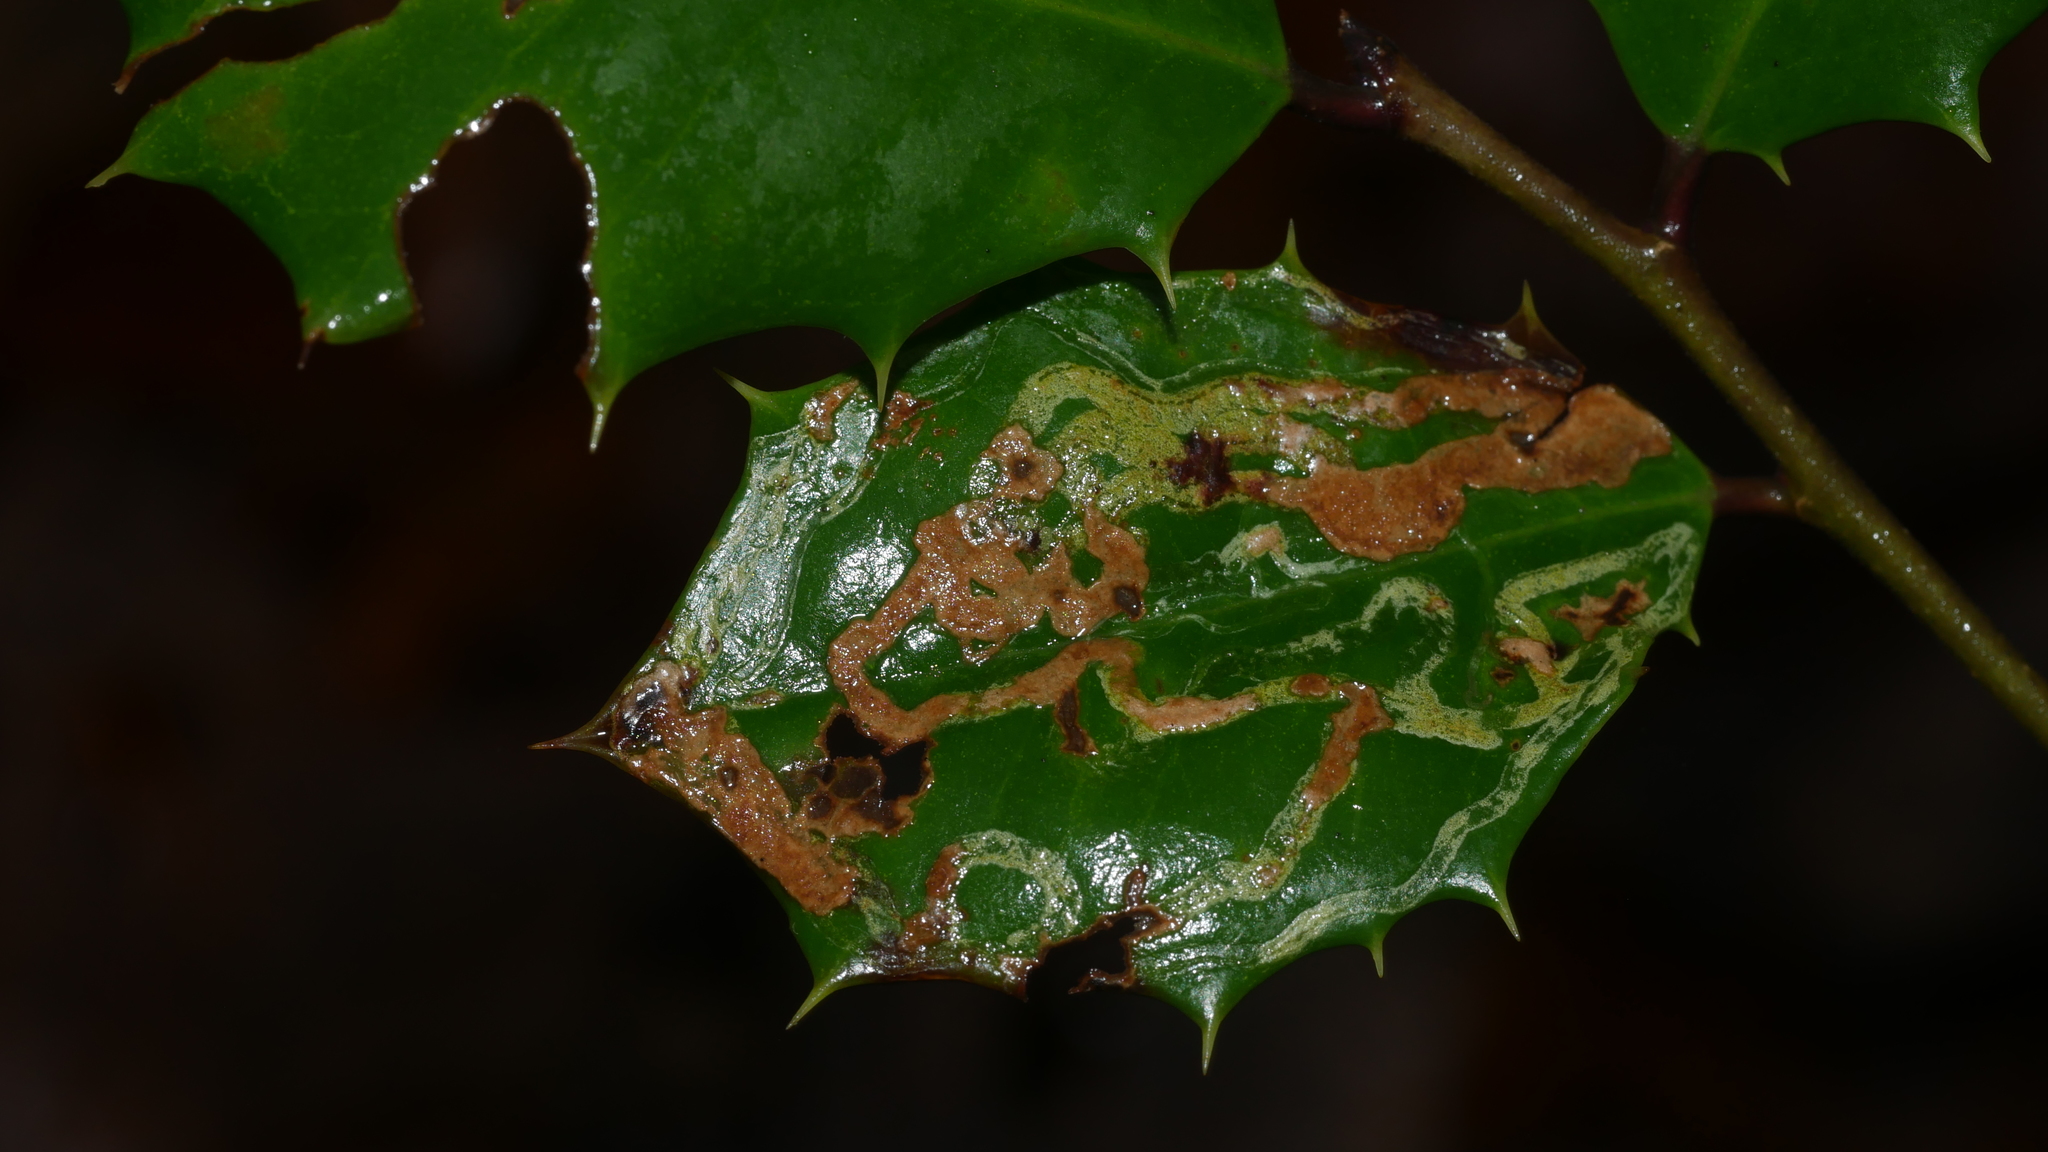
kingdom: Animalia
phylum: Arthropoda
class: Insecta
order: Diptera
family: Agromyzidae
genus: Phytomyza
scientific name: Phytomyza opacae
